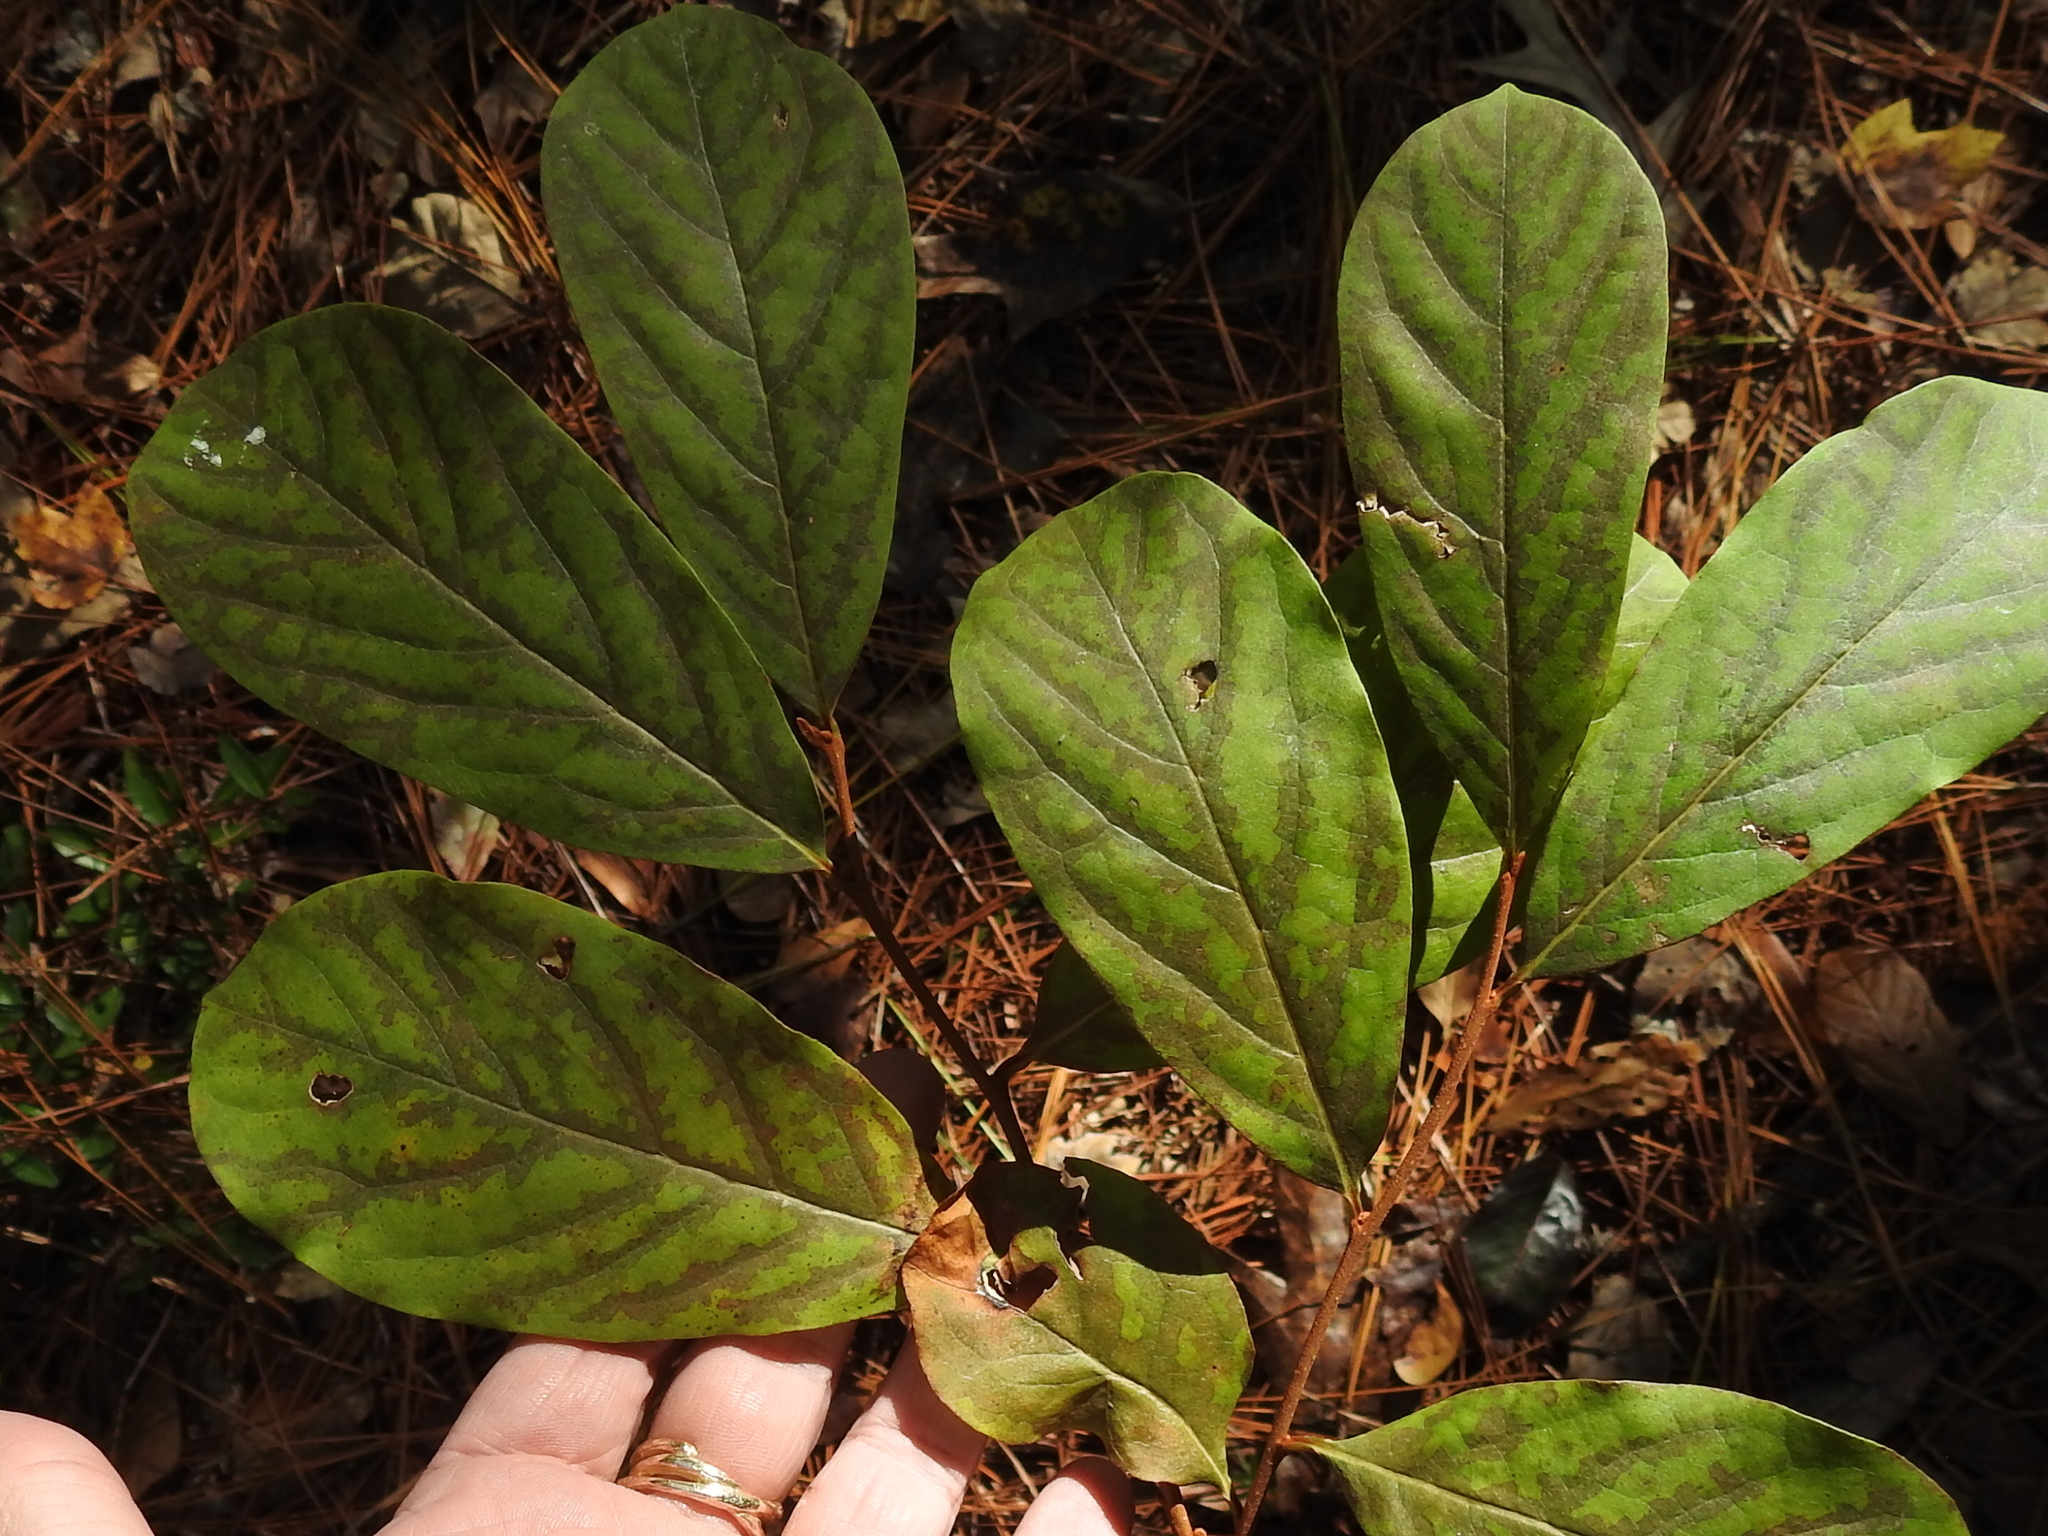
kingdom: Plantae
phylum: Tracheophyta
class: Magnoliopsida
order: Magnoliales
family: Annonaceae
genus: Asimina
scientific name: Asimina parviflora
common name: Dwarf pawpaw
